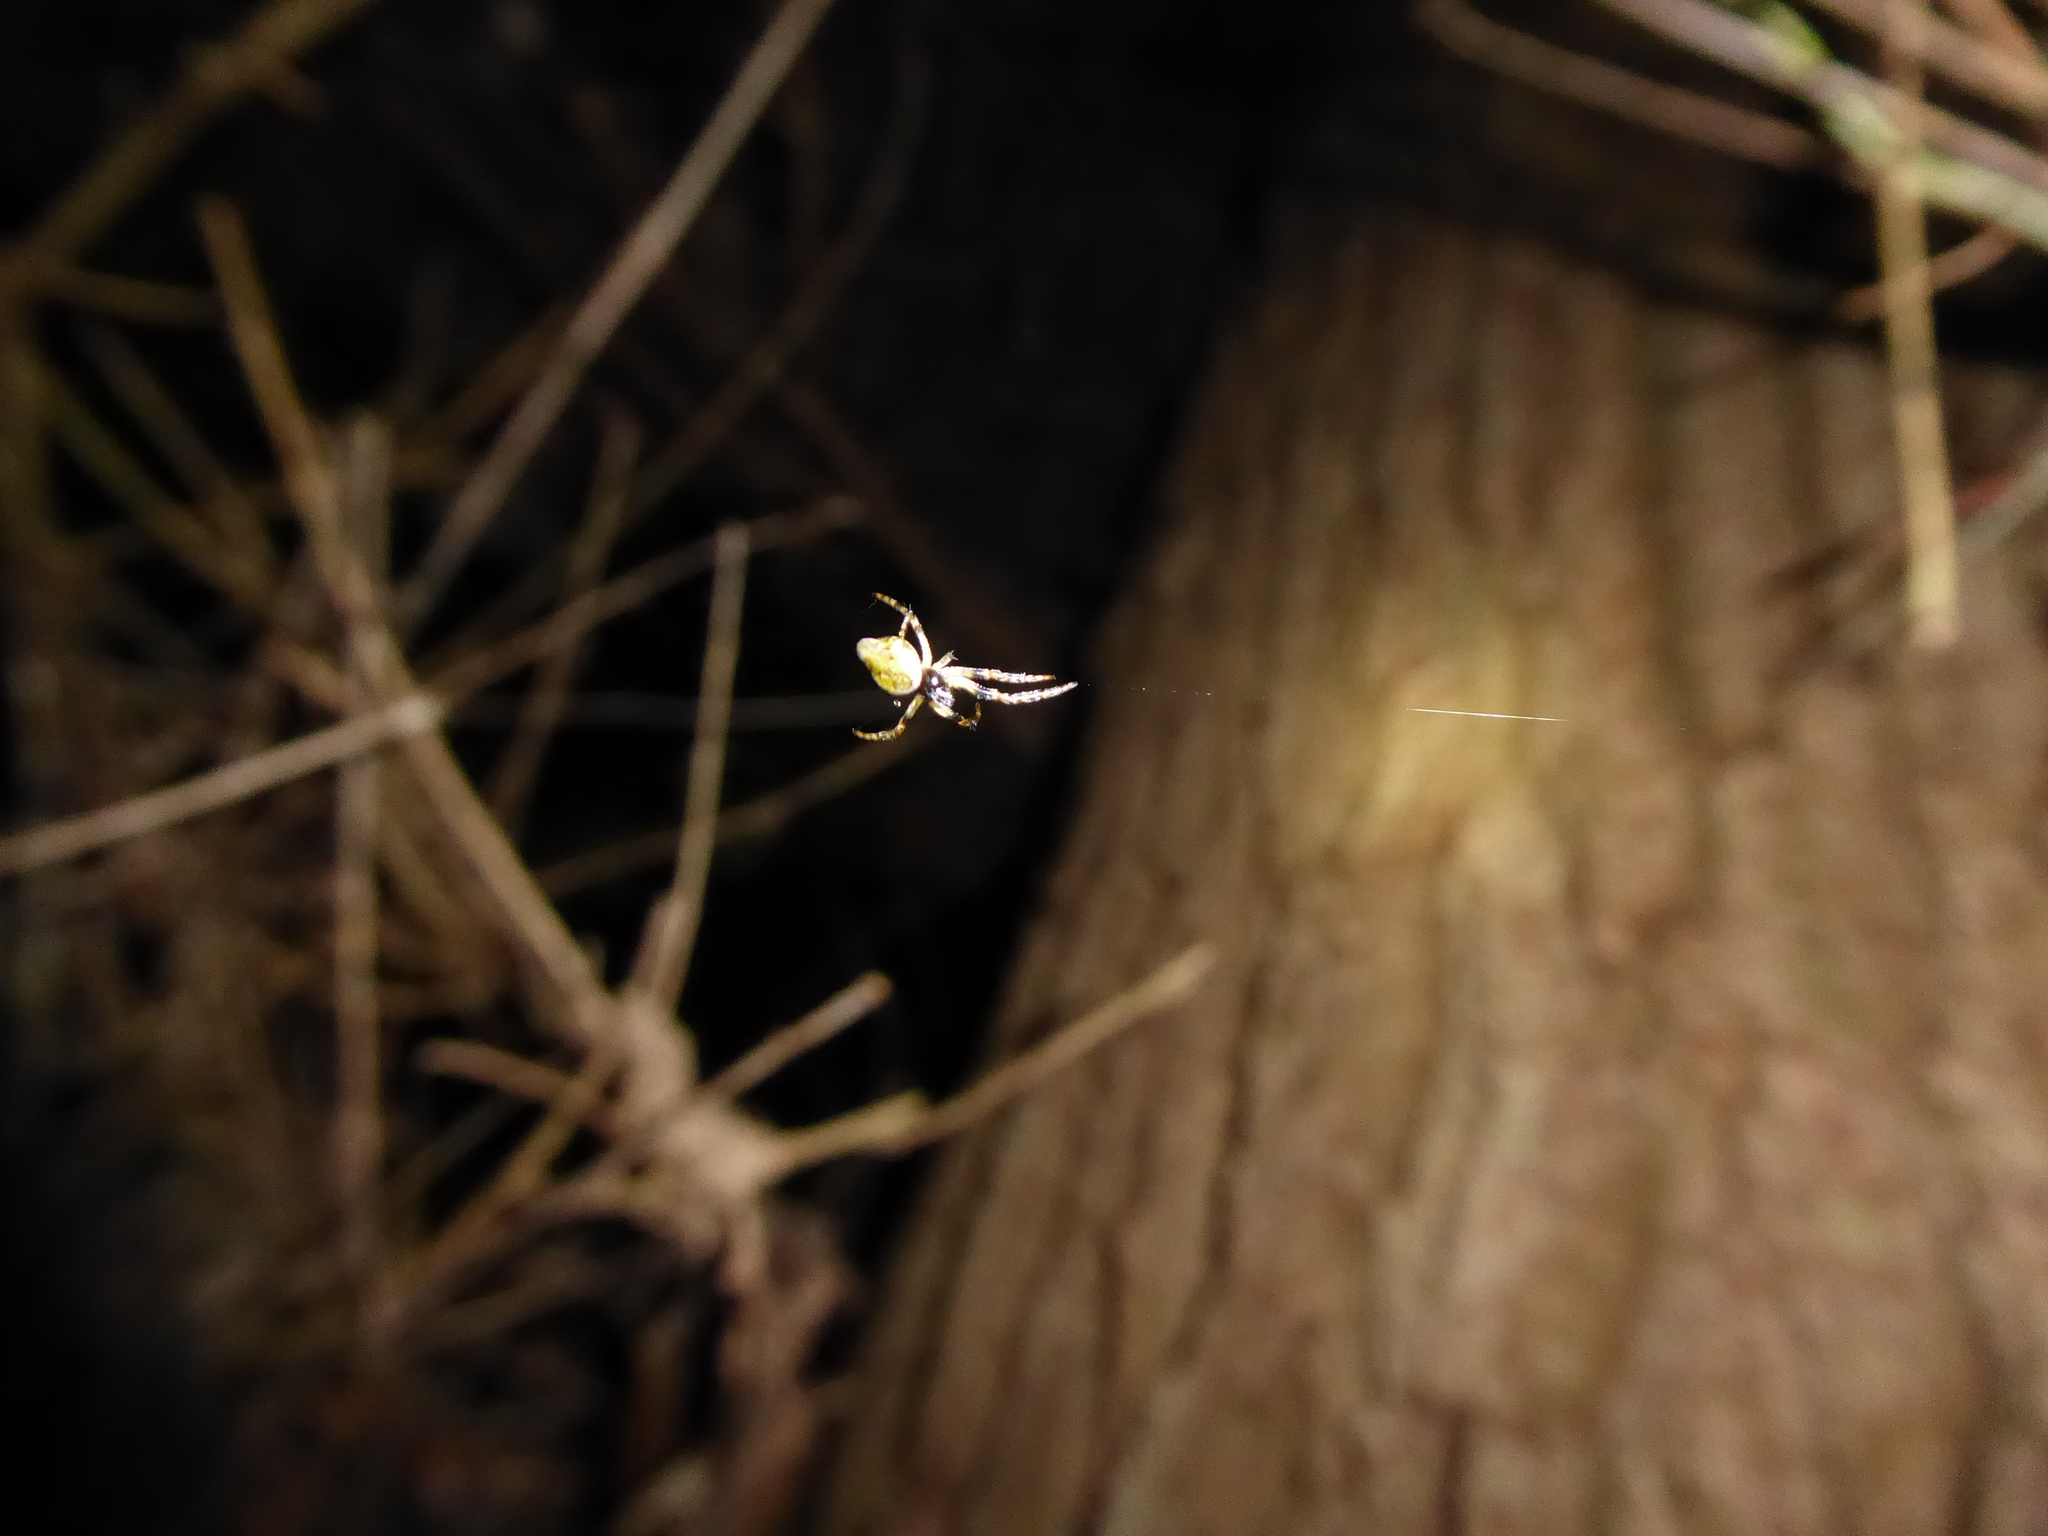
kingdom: Animalia
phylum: Arthropoda
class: Arachnida
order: Araneae
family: Araneidae
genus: Cyclosa
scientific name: Cyclosa conica
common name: Conical trashline orbweaver
